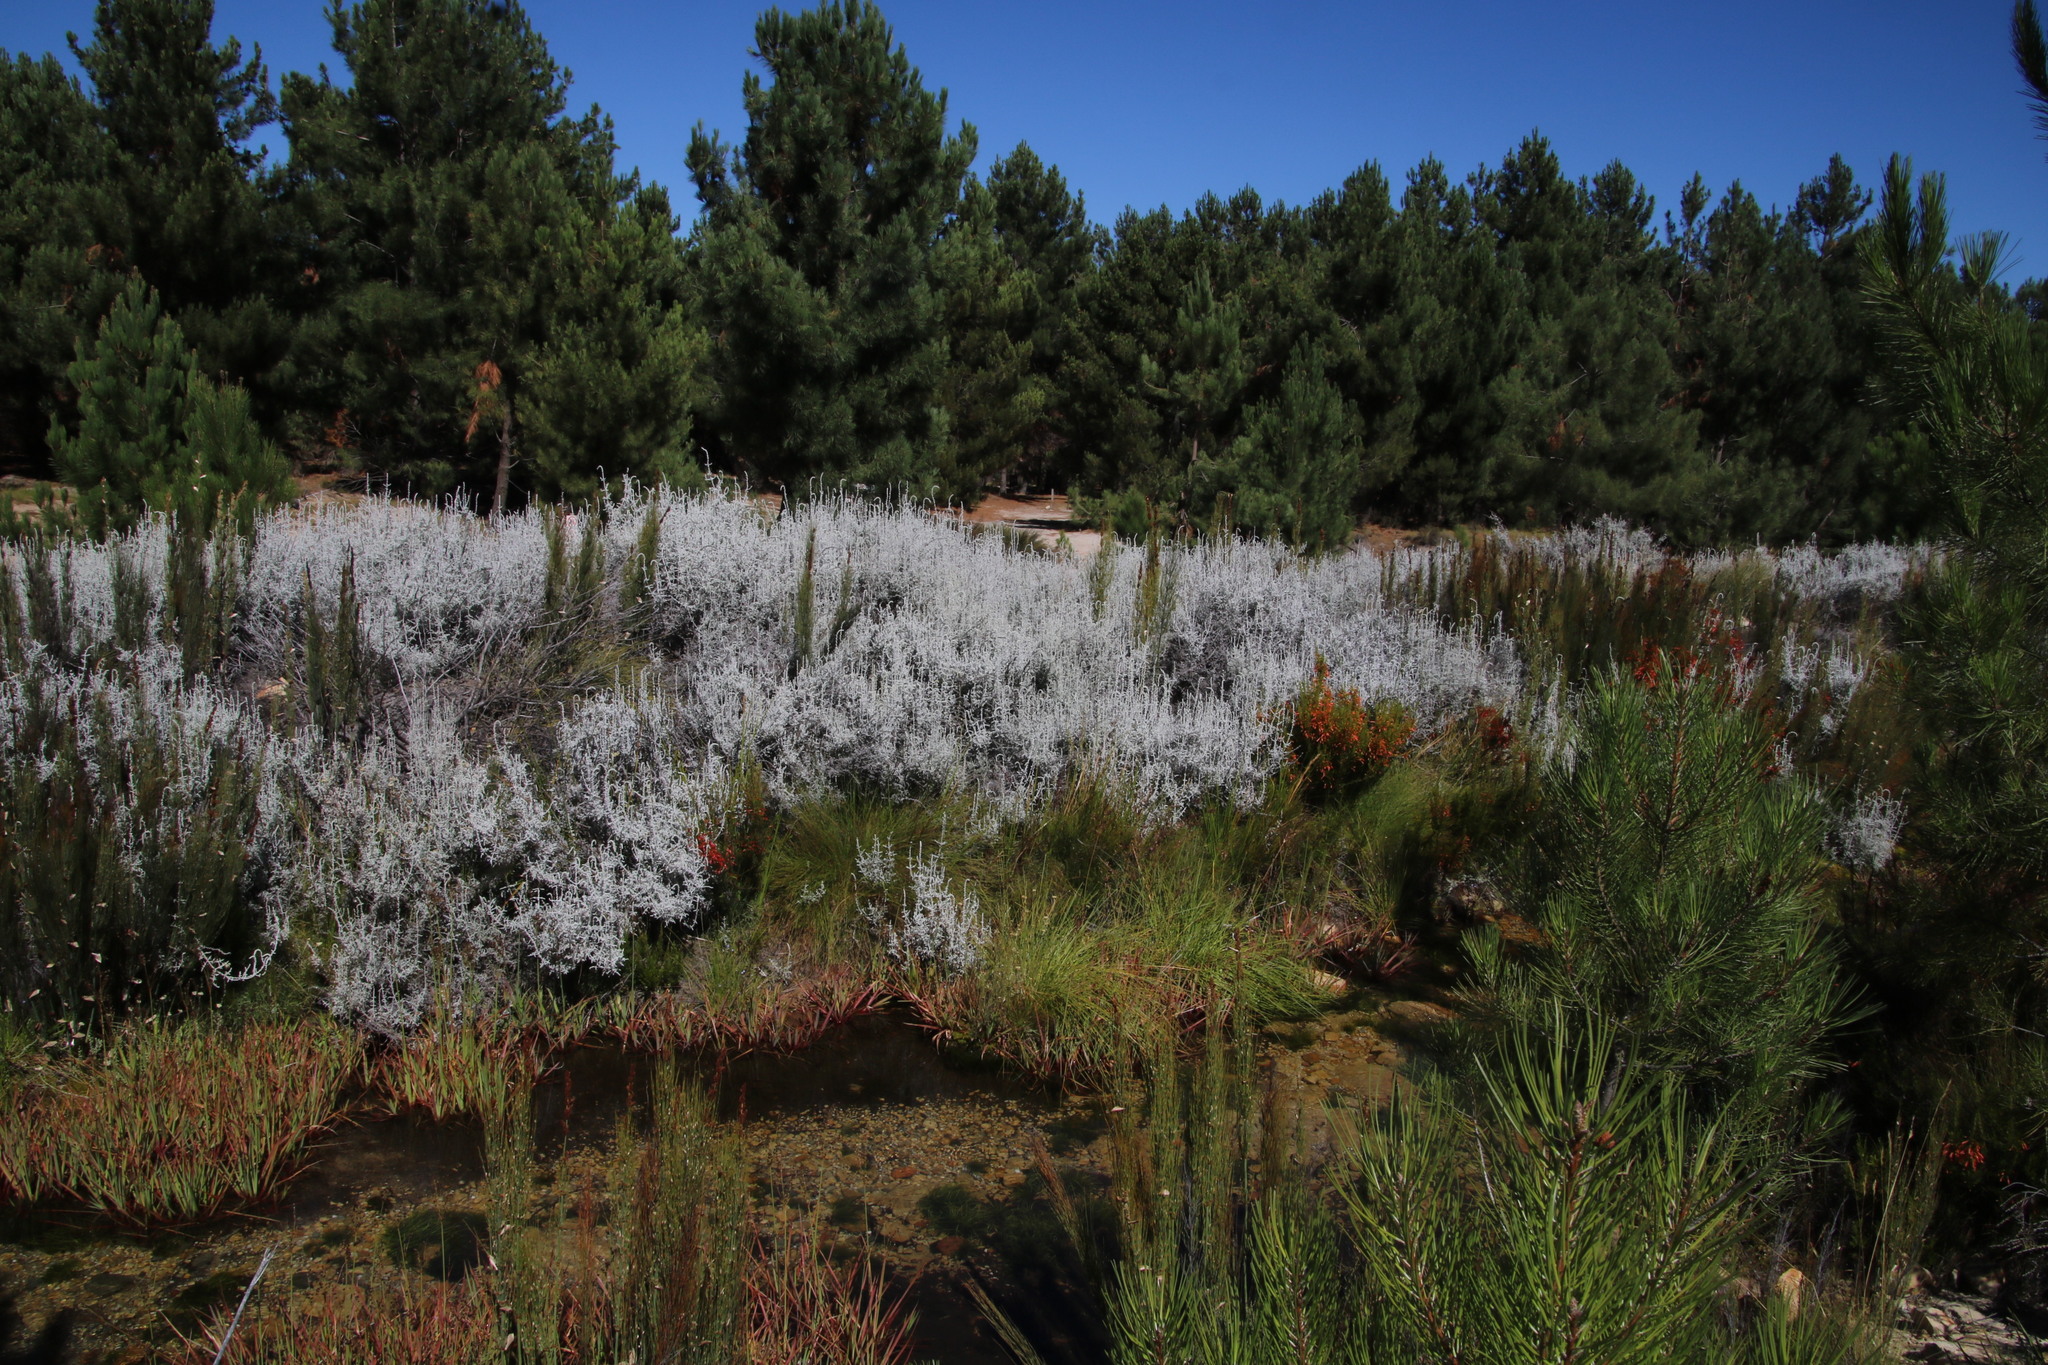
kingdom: Plantae
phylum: Tracheophyta
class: Magnoliopsida
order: Asterales
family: Asteraceae
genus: Seriphium
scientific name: Seriphium plumosum
